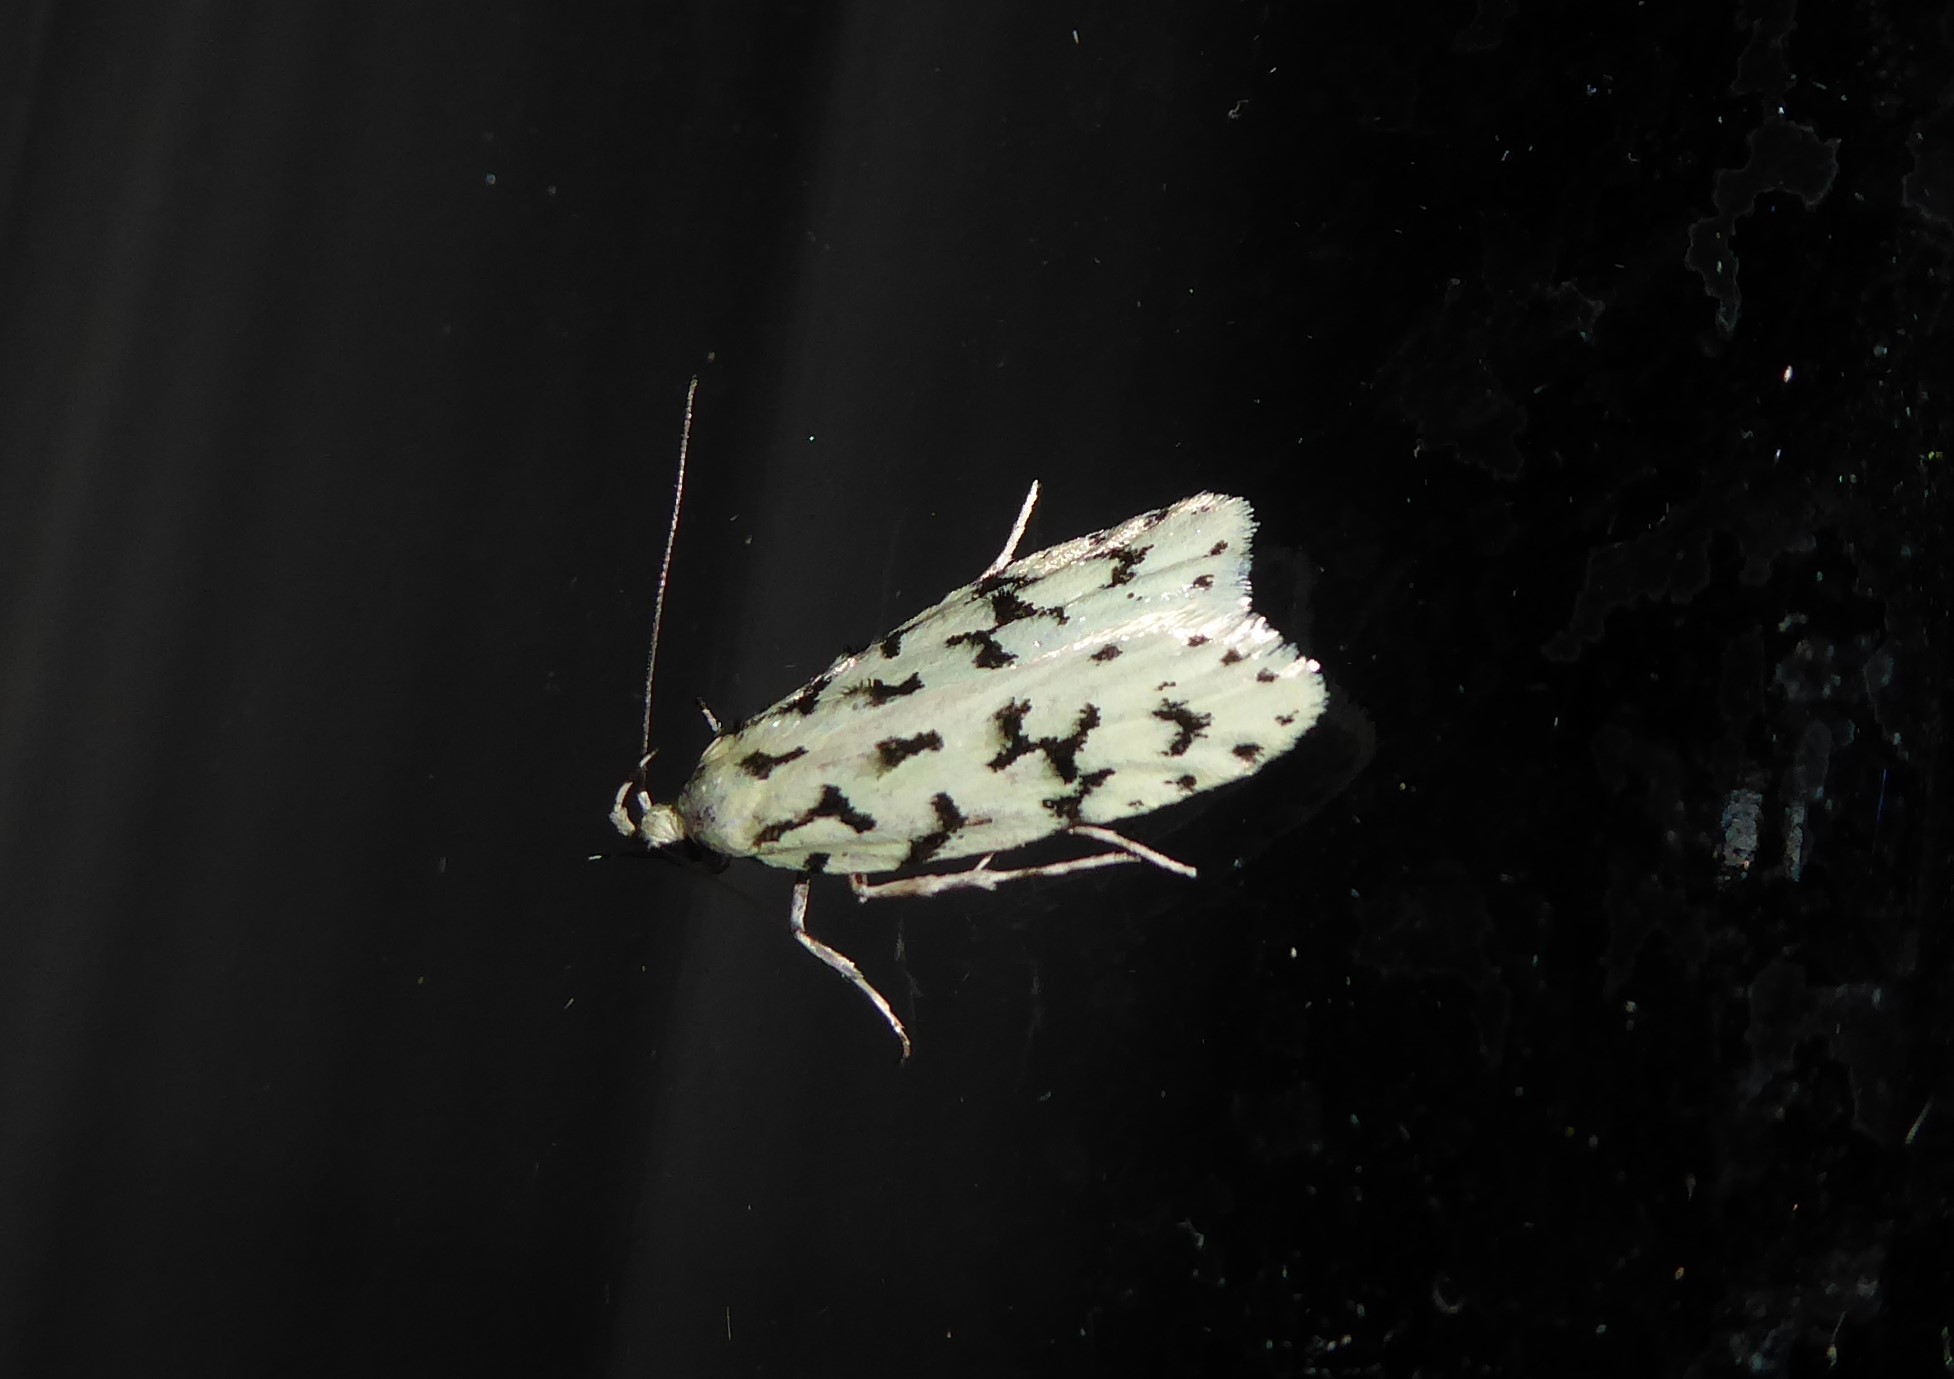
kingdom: Animalia
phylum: Arthropoda
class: Insecta
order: Lepidoptera
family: Oecophoridae
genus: Izatha
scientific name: Izatha huttoni
